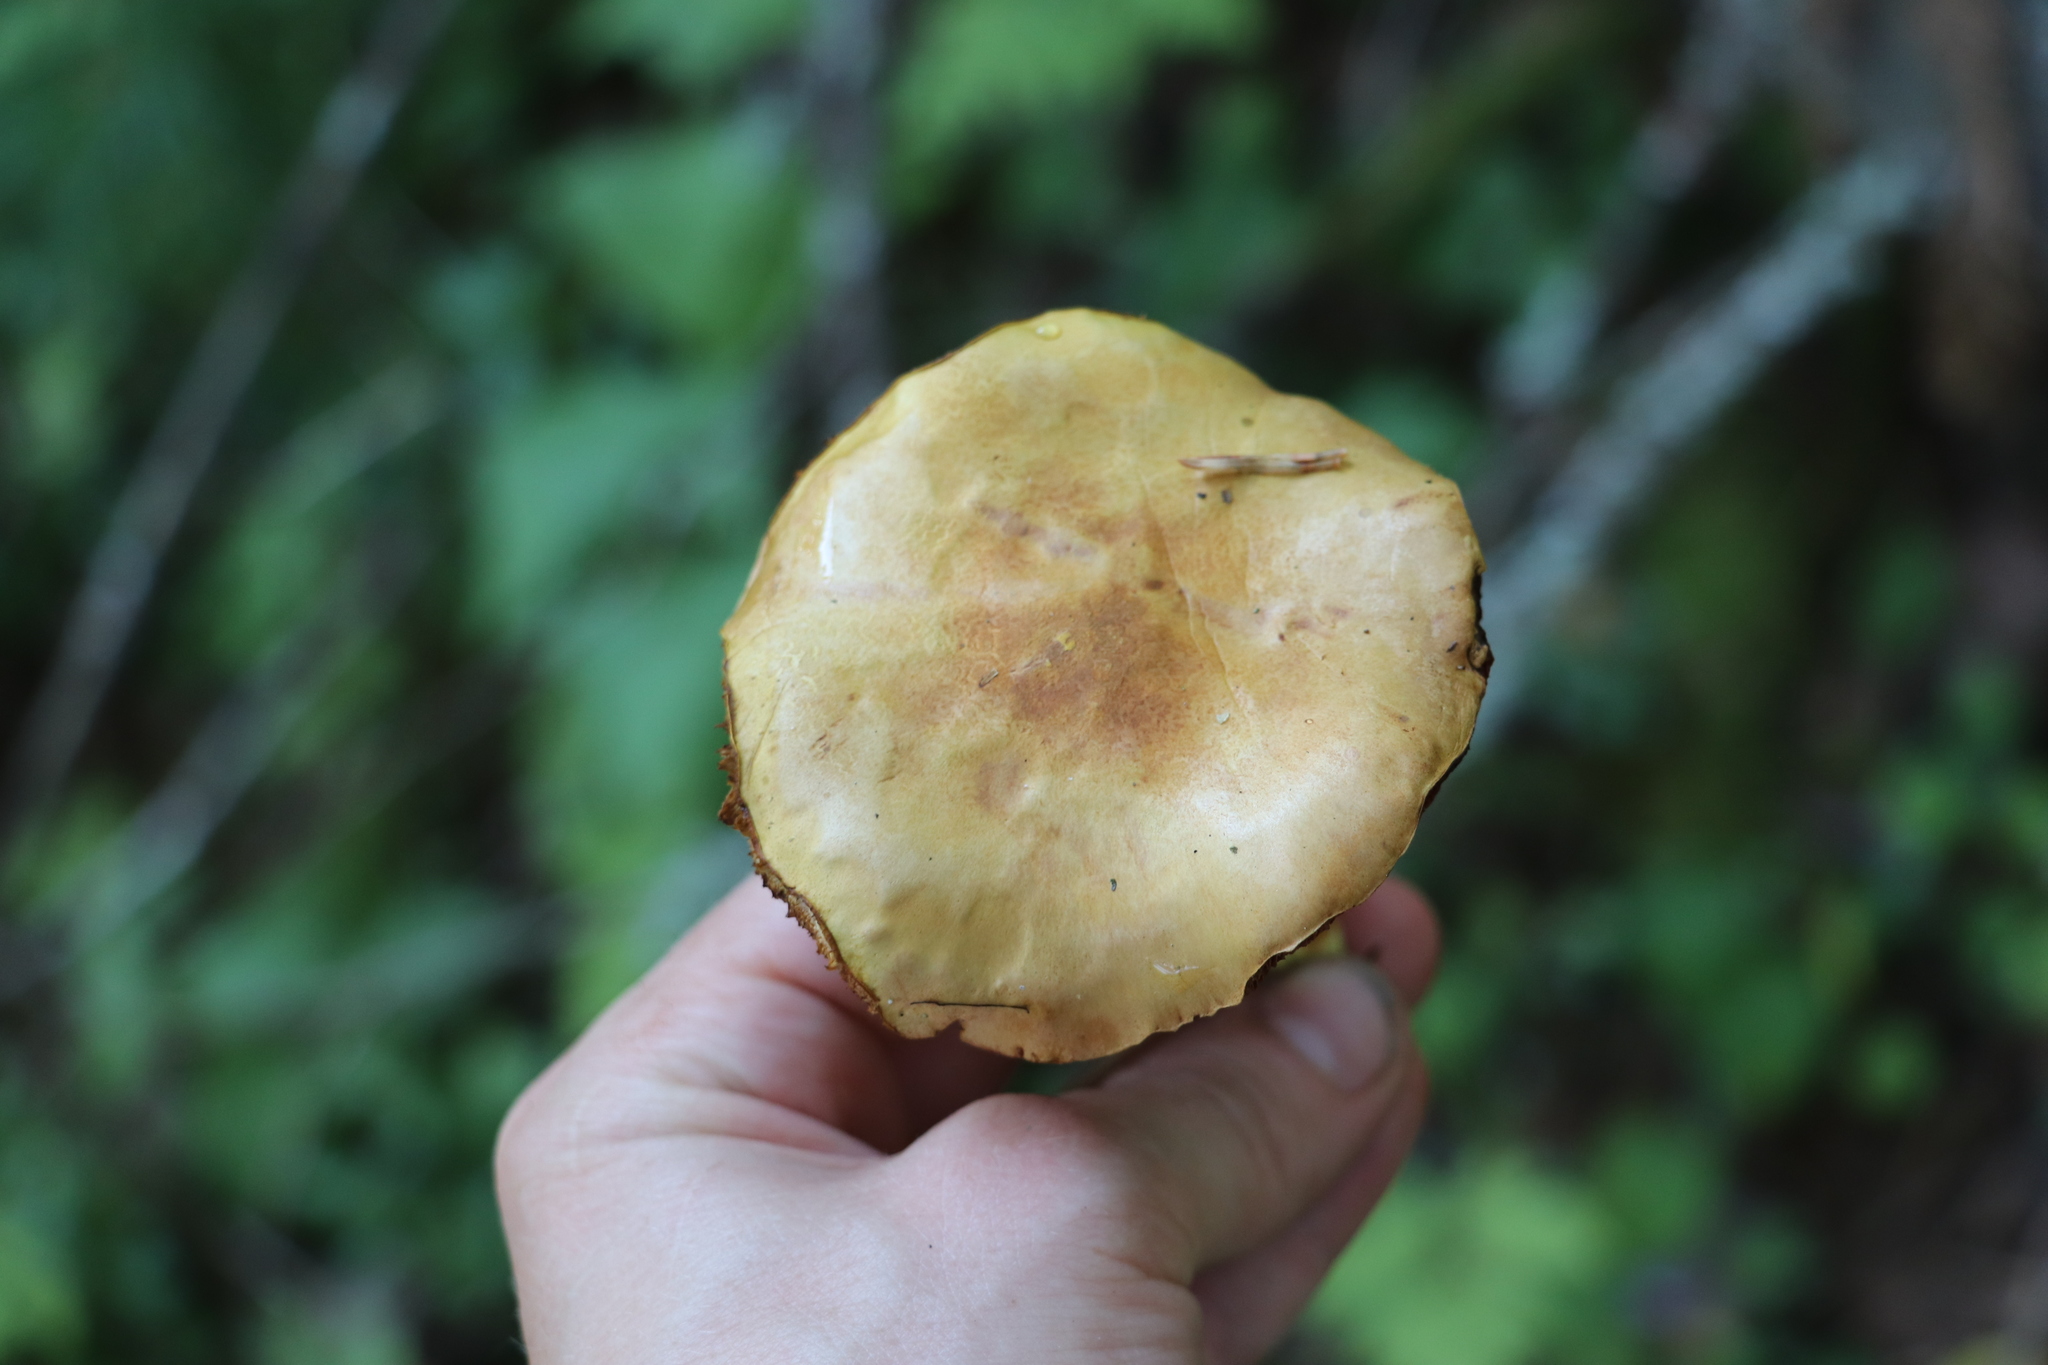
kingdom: Fungi
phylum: Basidiomycota
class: Agaricomycetes
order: Boletales
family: Boletaceae
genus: Chalciporus
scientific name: Chalciporus piperatus
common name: Peppery bolete
